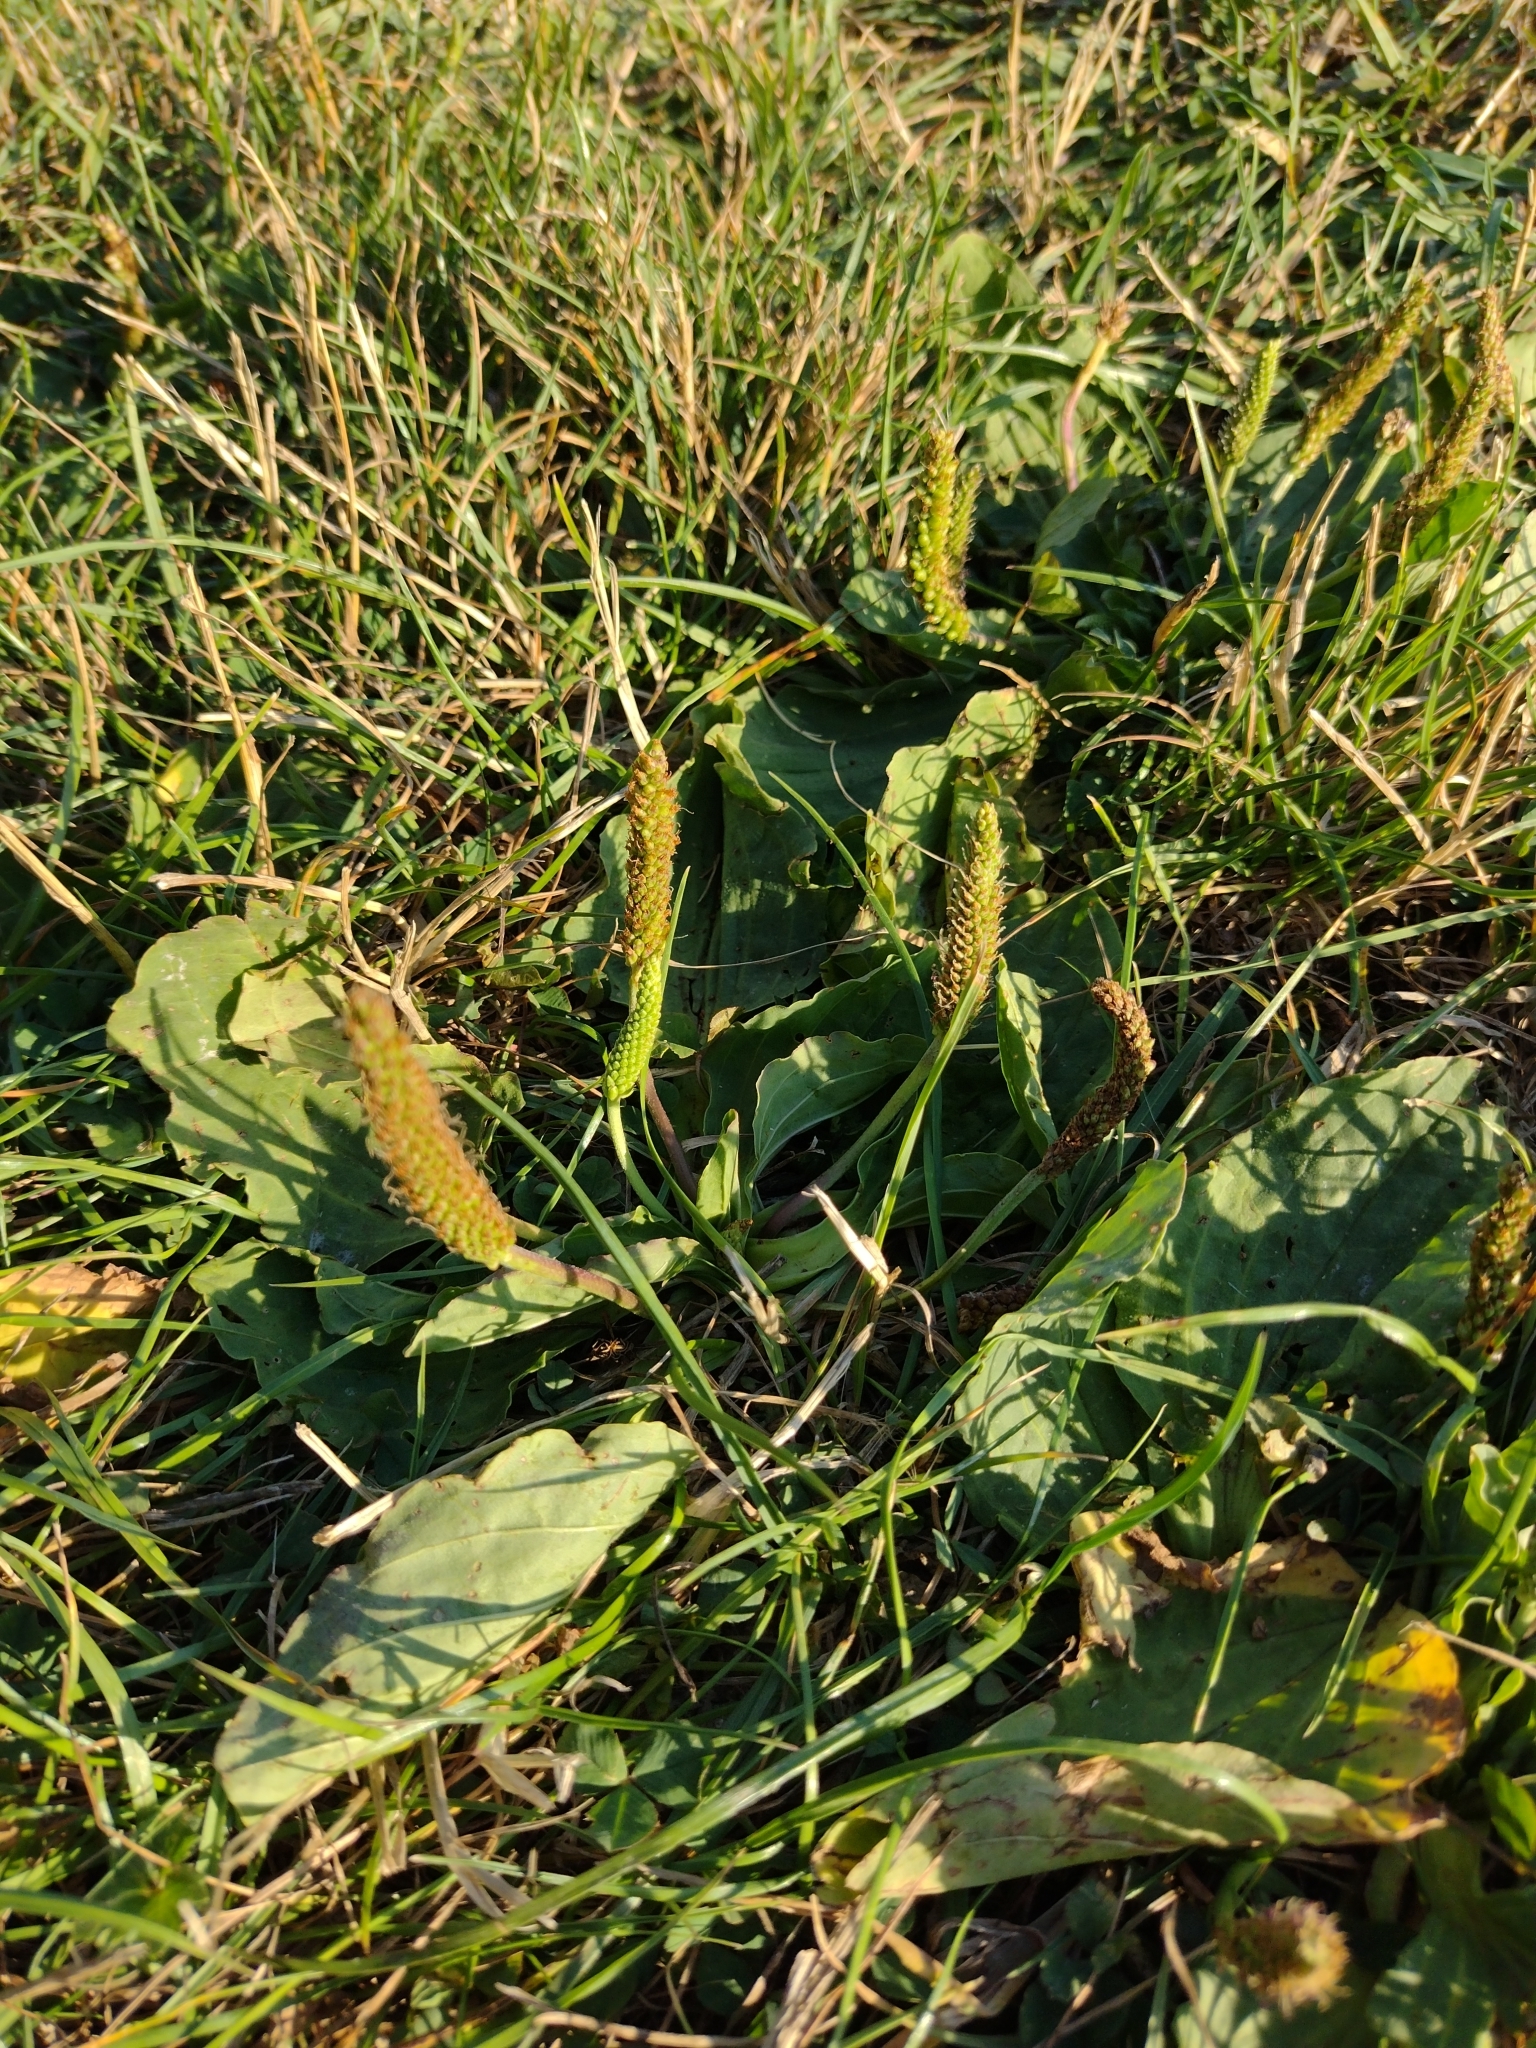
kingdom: Plantae
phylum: Tracheophyta
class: Magnoliopsida
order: Lamiales
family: Plantaginaceae
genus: Plantago
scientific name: Plantago major
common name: Common plantain
